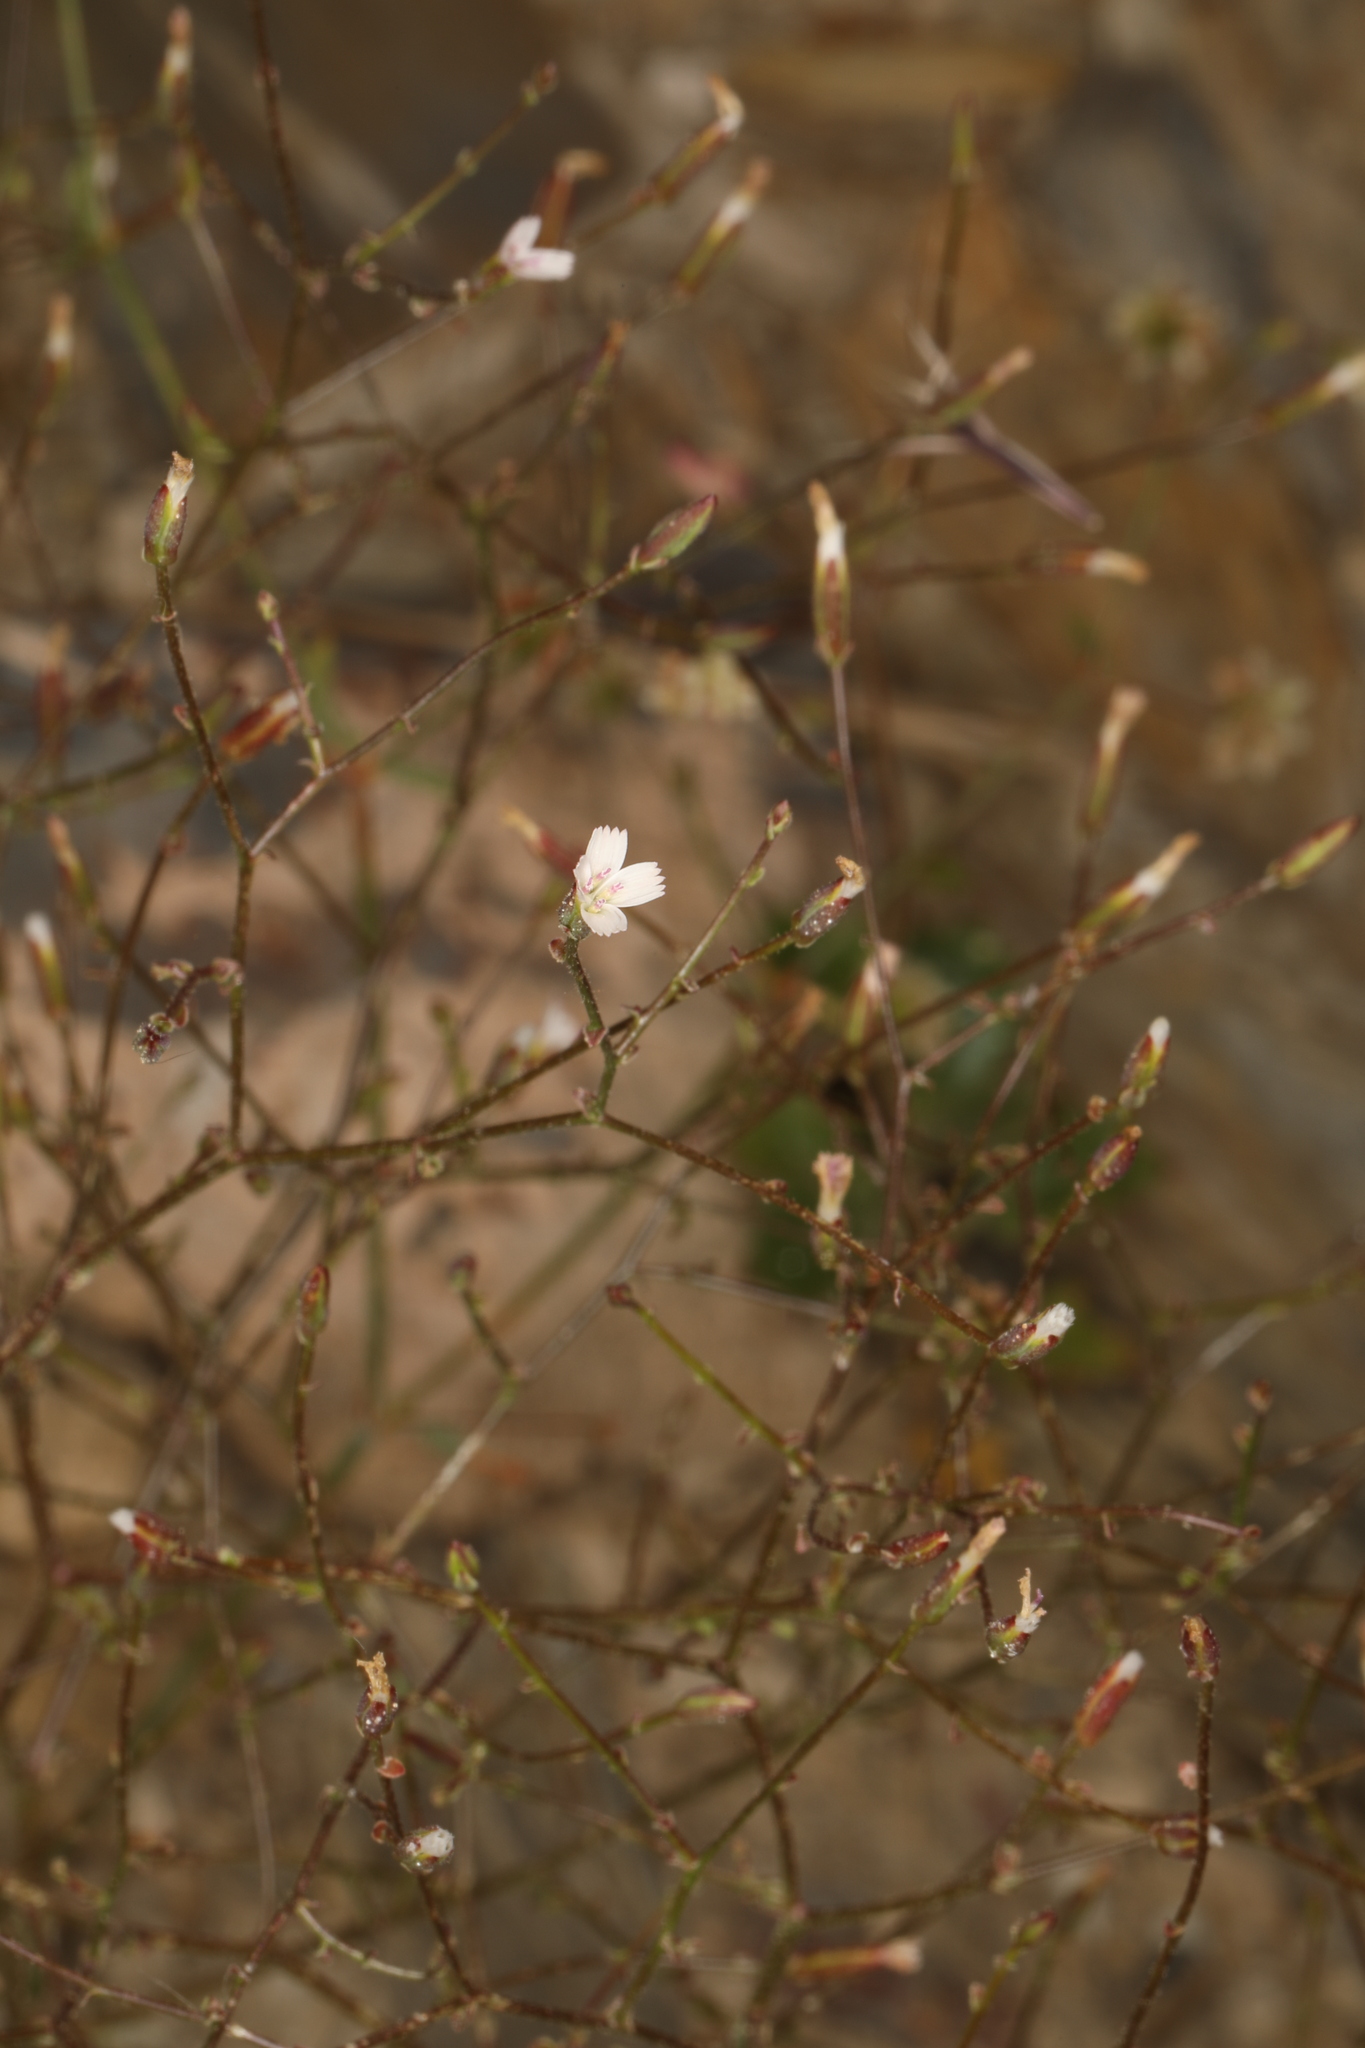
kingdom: Plantae
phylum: Tracheophyta
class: Magnoliopsida
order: Asterales
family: Asteraceae
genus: Lygodesmia
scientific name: Lygodesmia exigua
